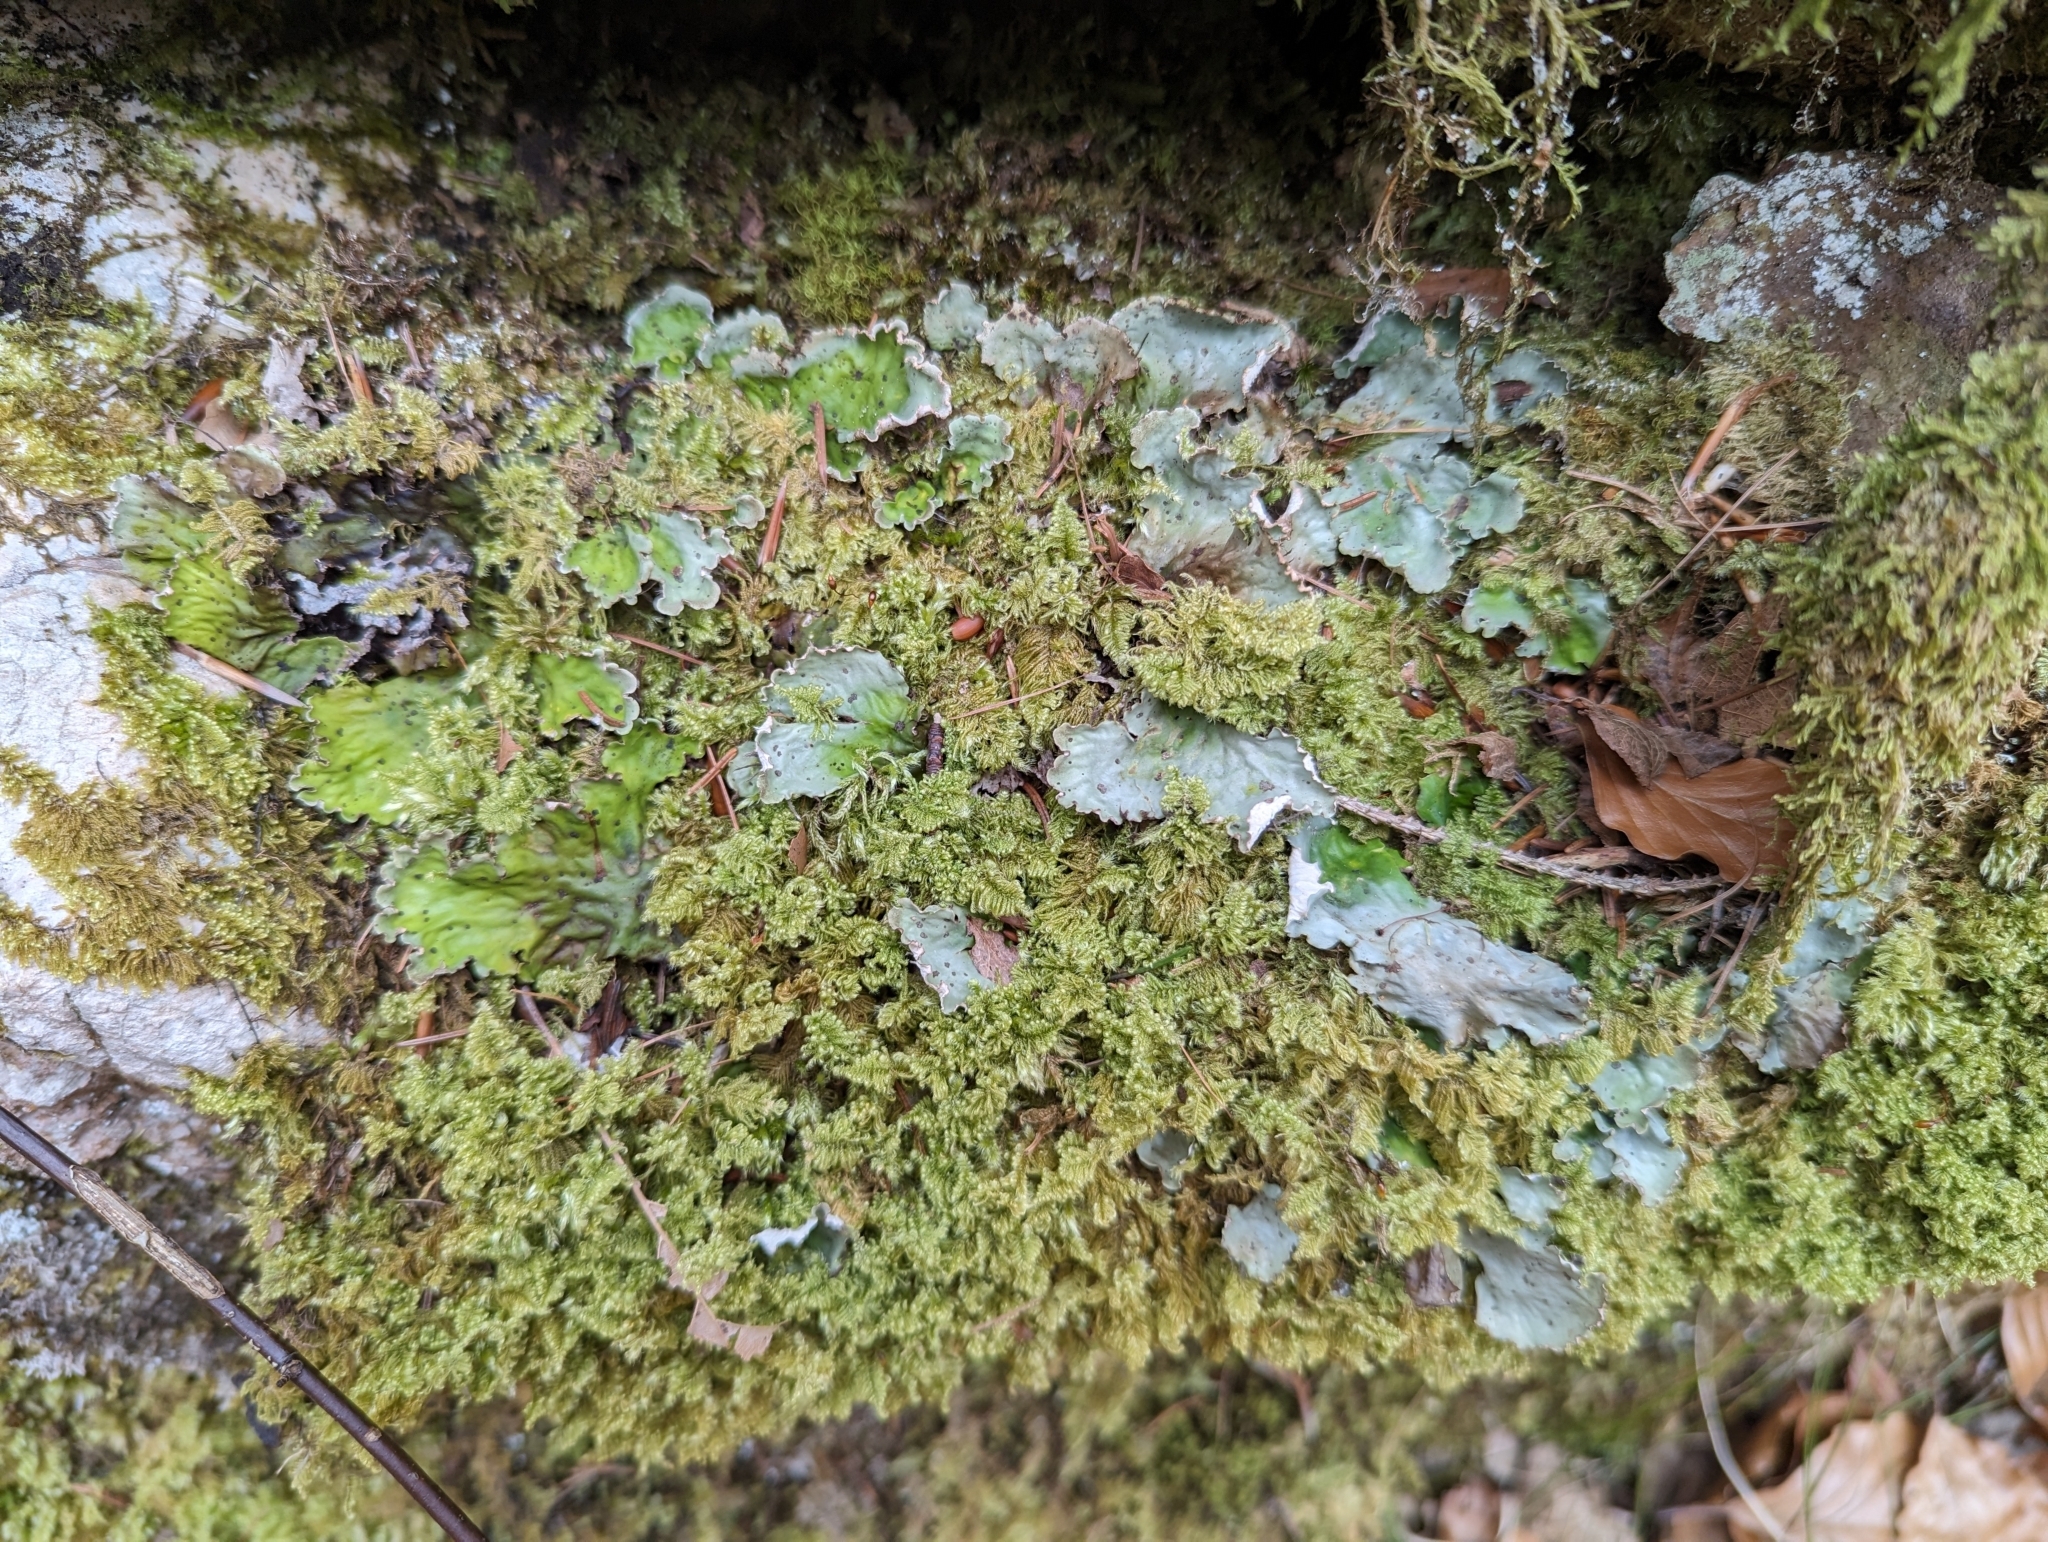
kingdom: Fungi
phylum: Ascomycota
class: Lecanoromycetes
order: Peltigerales
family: Peltigeraceae
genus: Peltigera
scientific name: Peltigera leucophlebia
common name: Ruffled freckle pelt lichen
